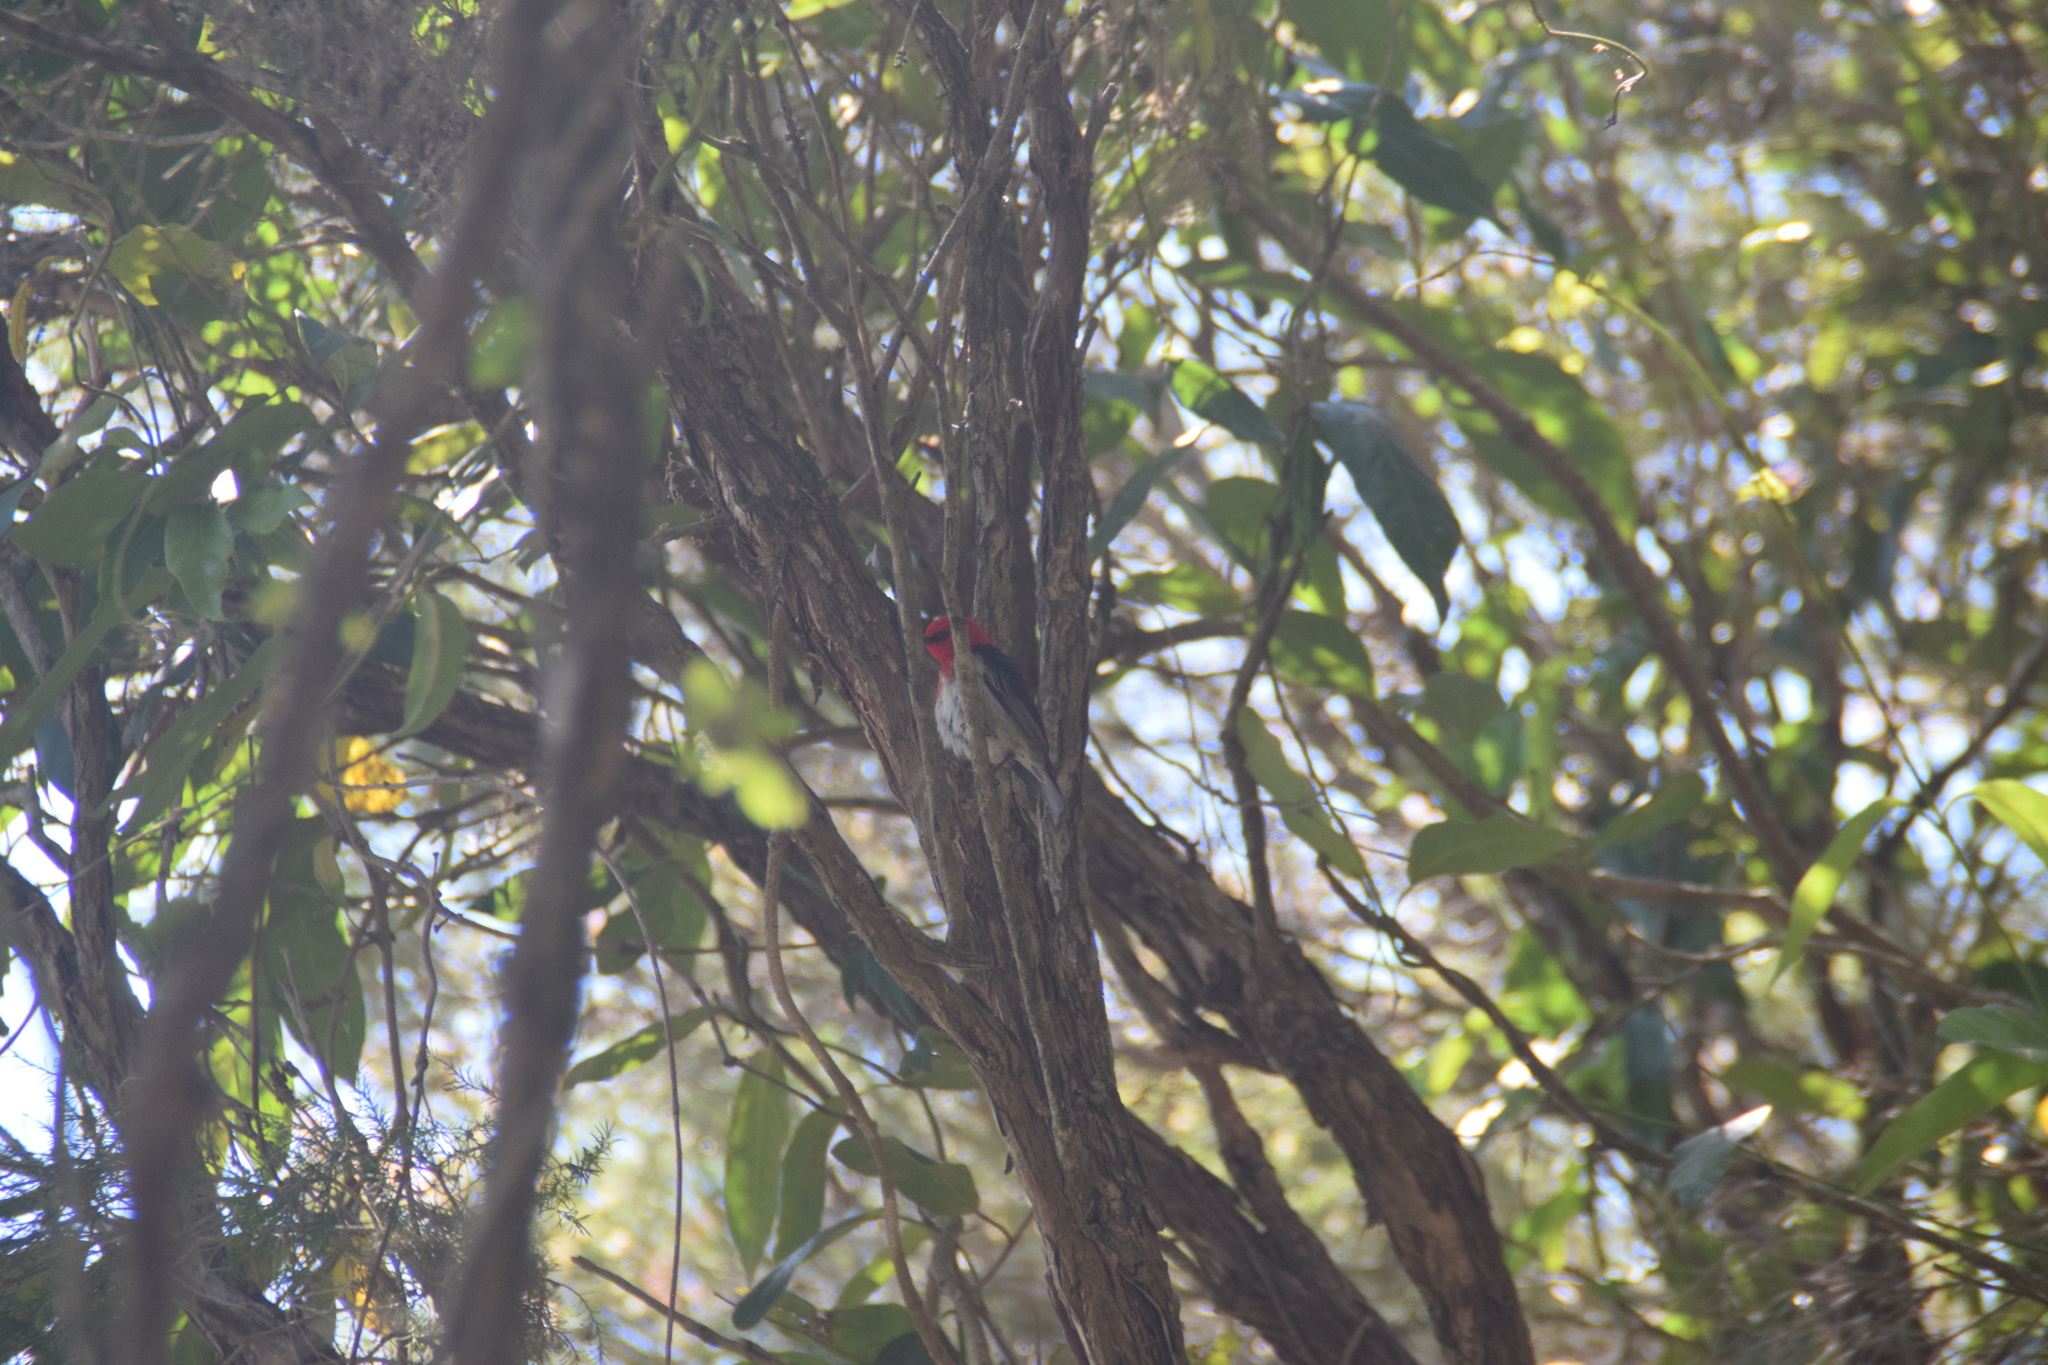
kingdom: Animalia
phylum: Chordata
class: Aves
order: Passeriformes
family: Meliphagidae
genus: Myzomela
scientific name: Myzomela sanguinolenta
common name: Scarlet myzomela
